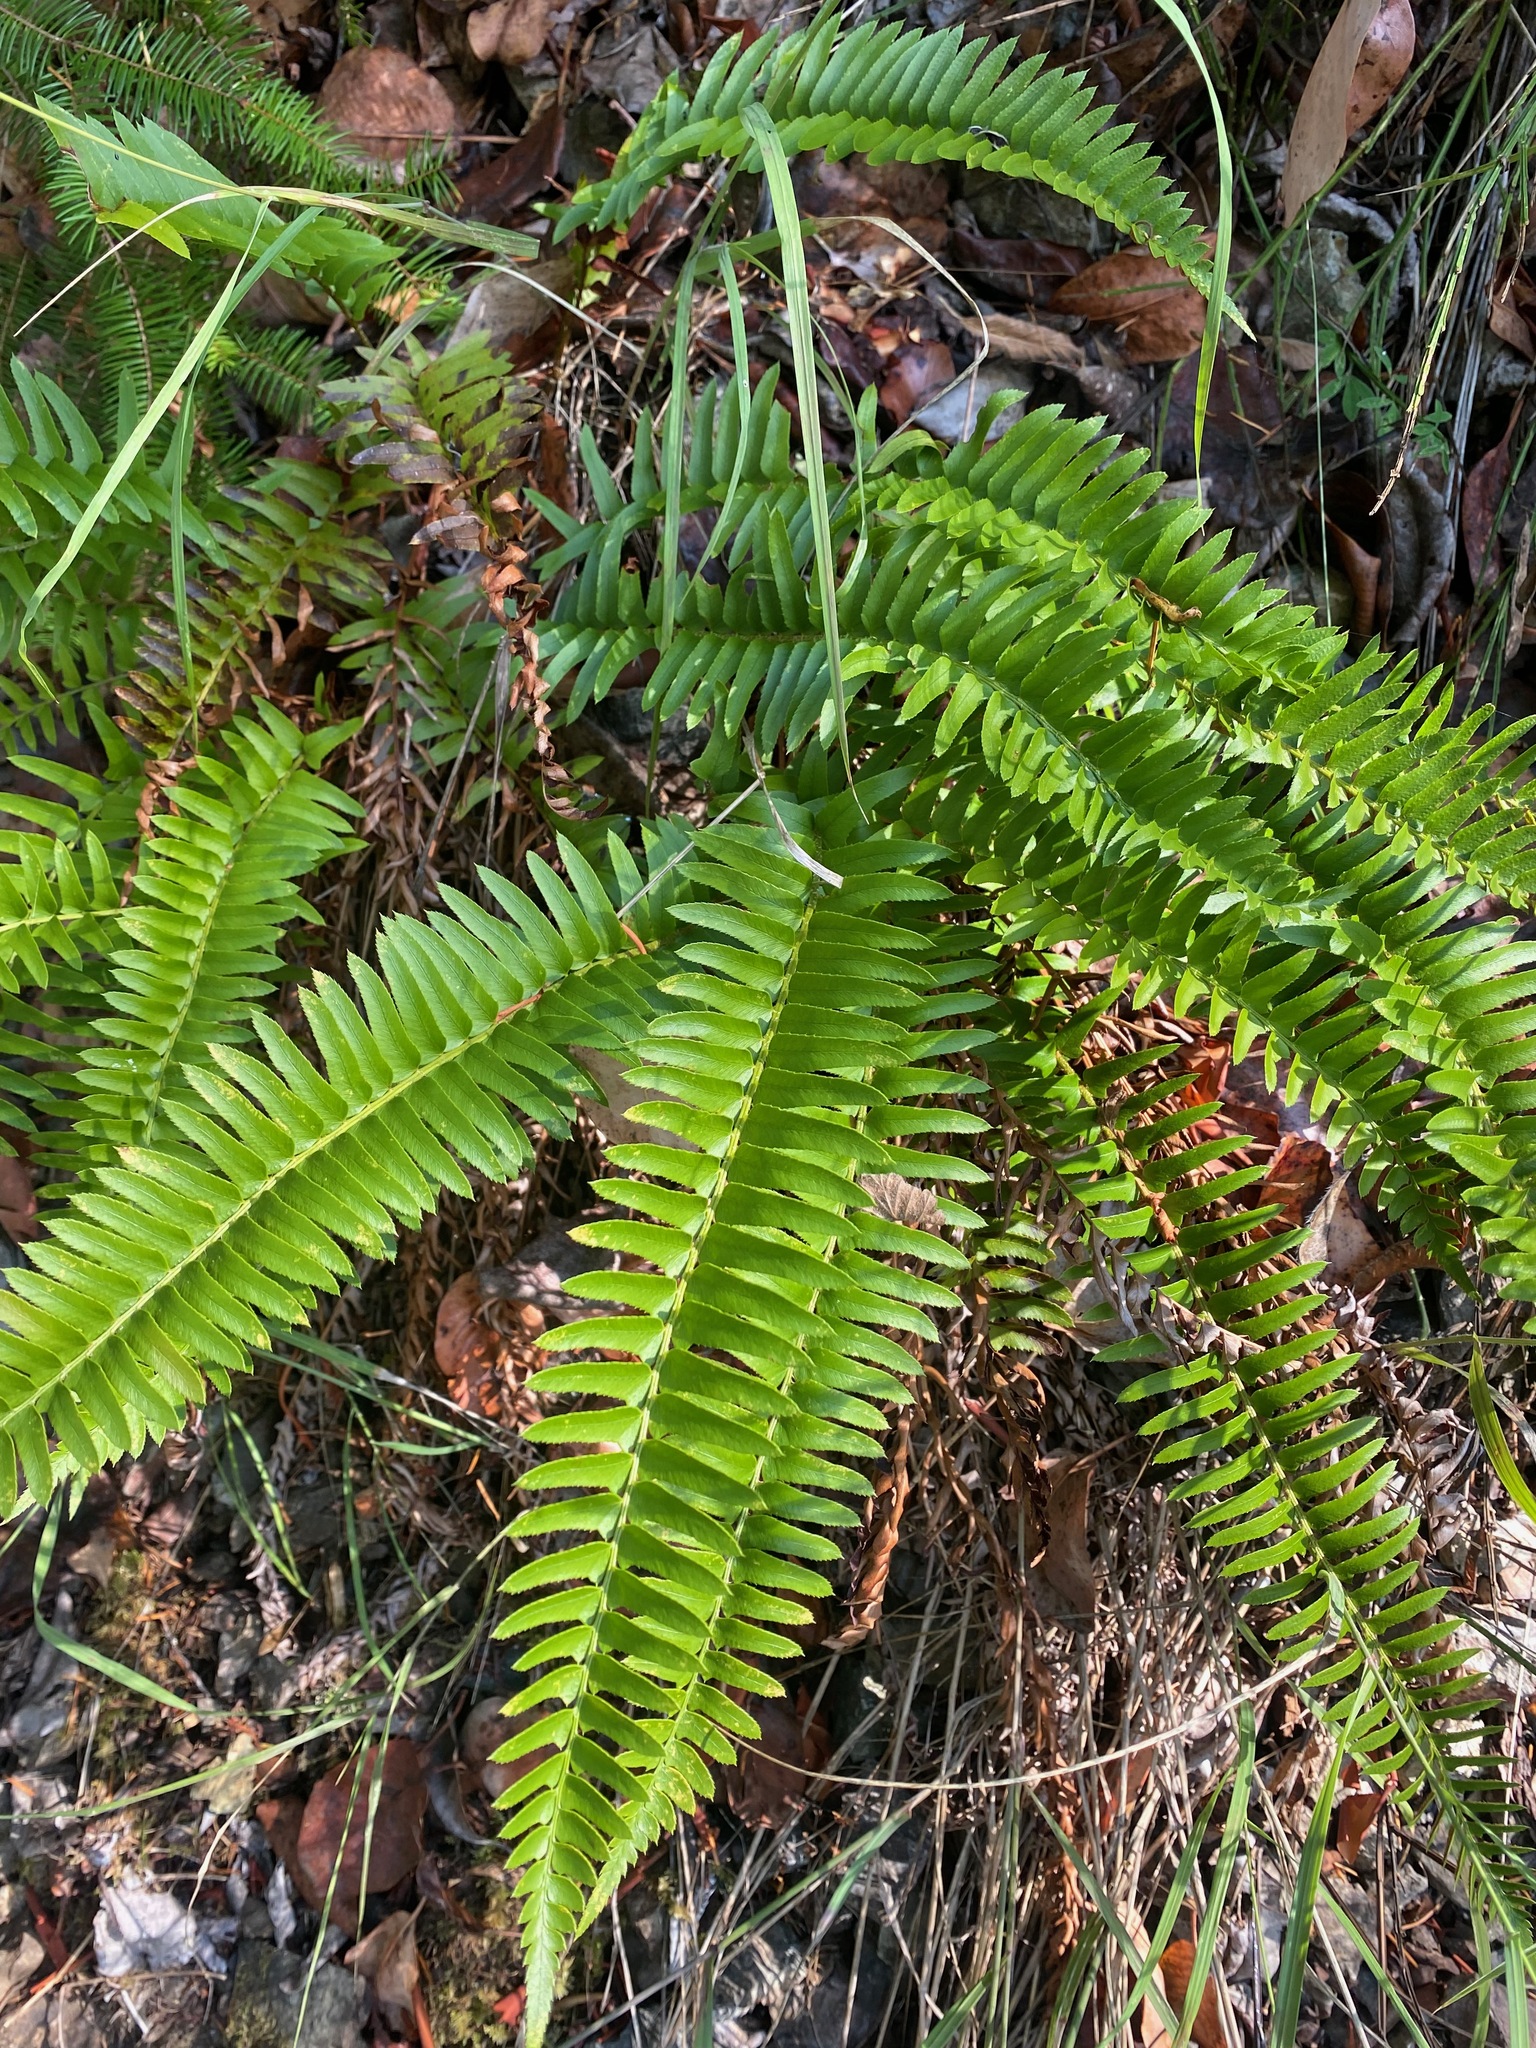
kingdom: Plantae
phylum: Tracheophyta
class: Polypodiopsida
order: Polypodiales
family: Dryopteridaceae
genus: Polystichum
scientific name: Polystichum imbricans
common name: Dwarf western sword fern
